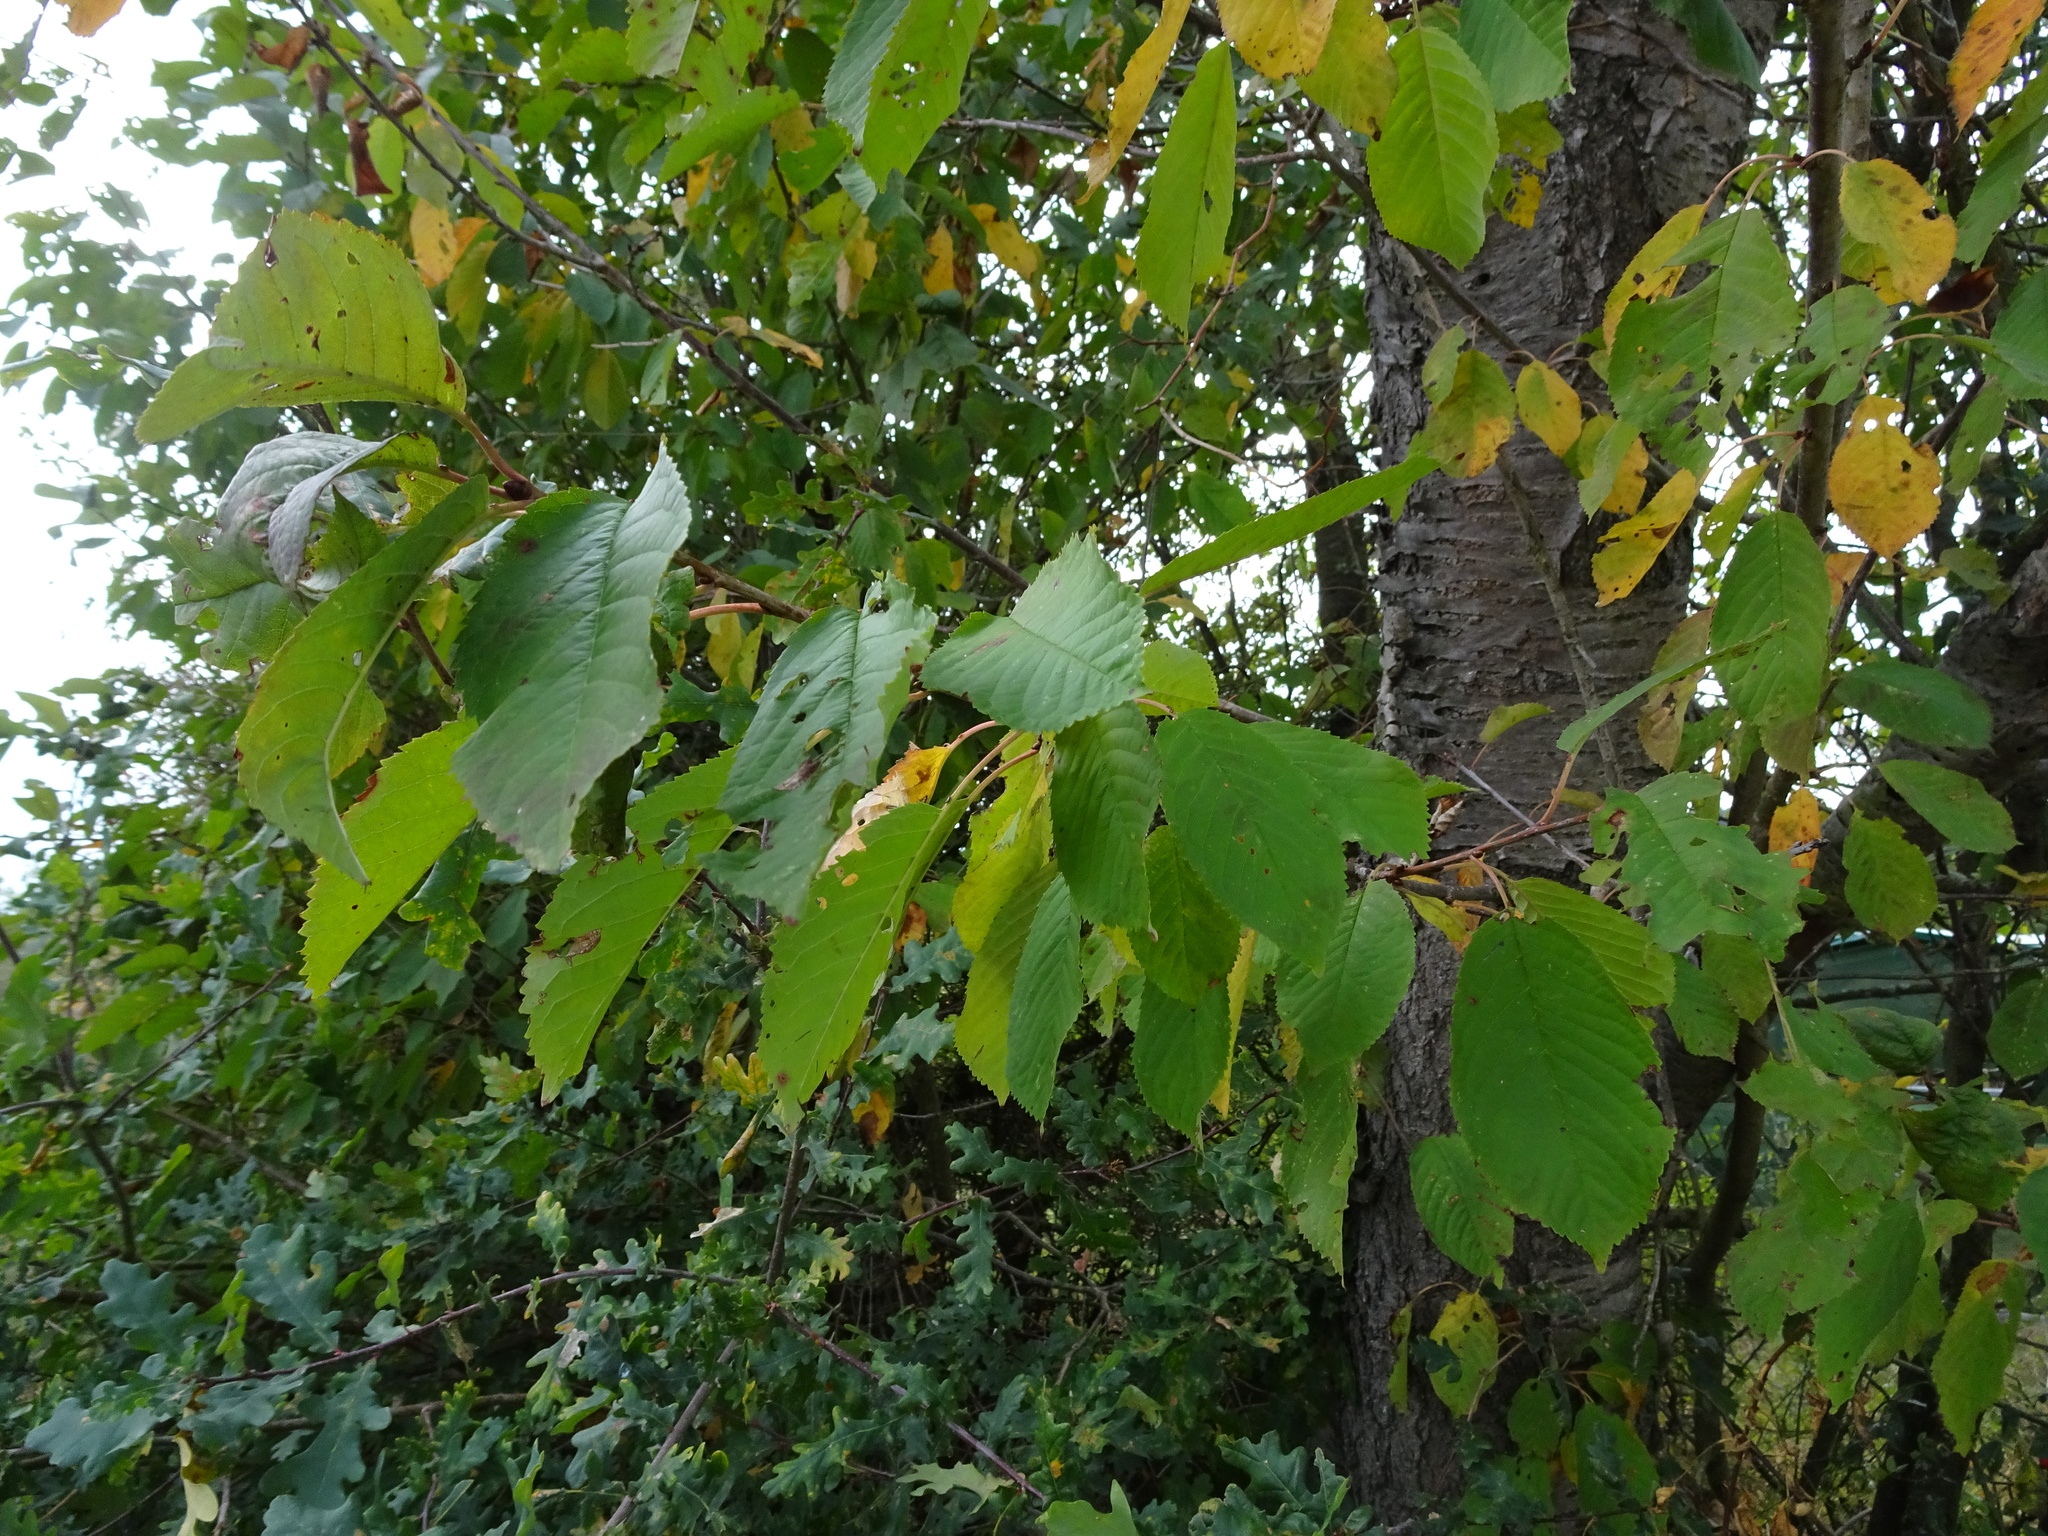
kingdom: Plantae
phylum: Tracheophyta
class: Magnoliopsida
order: Rosales
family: Rosaceae
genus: Prunus
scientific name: Prunus avium
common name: Sweet cherry
